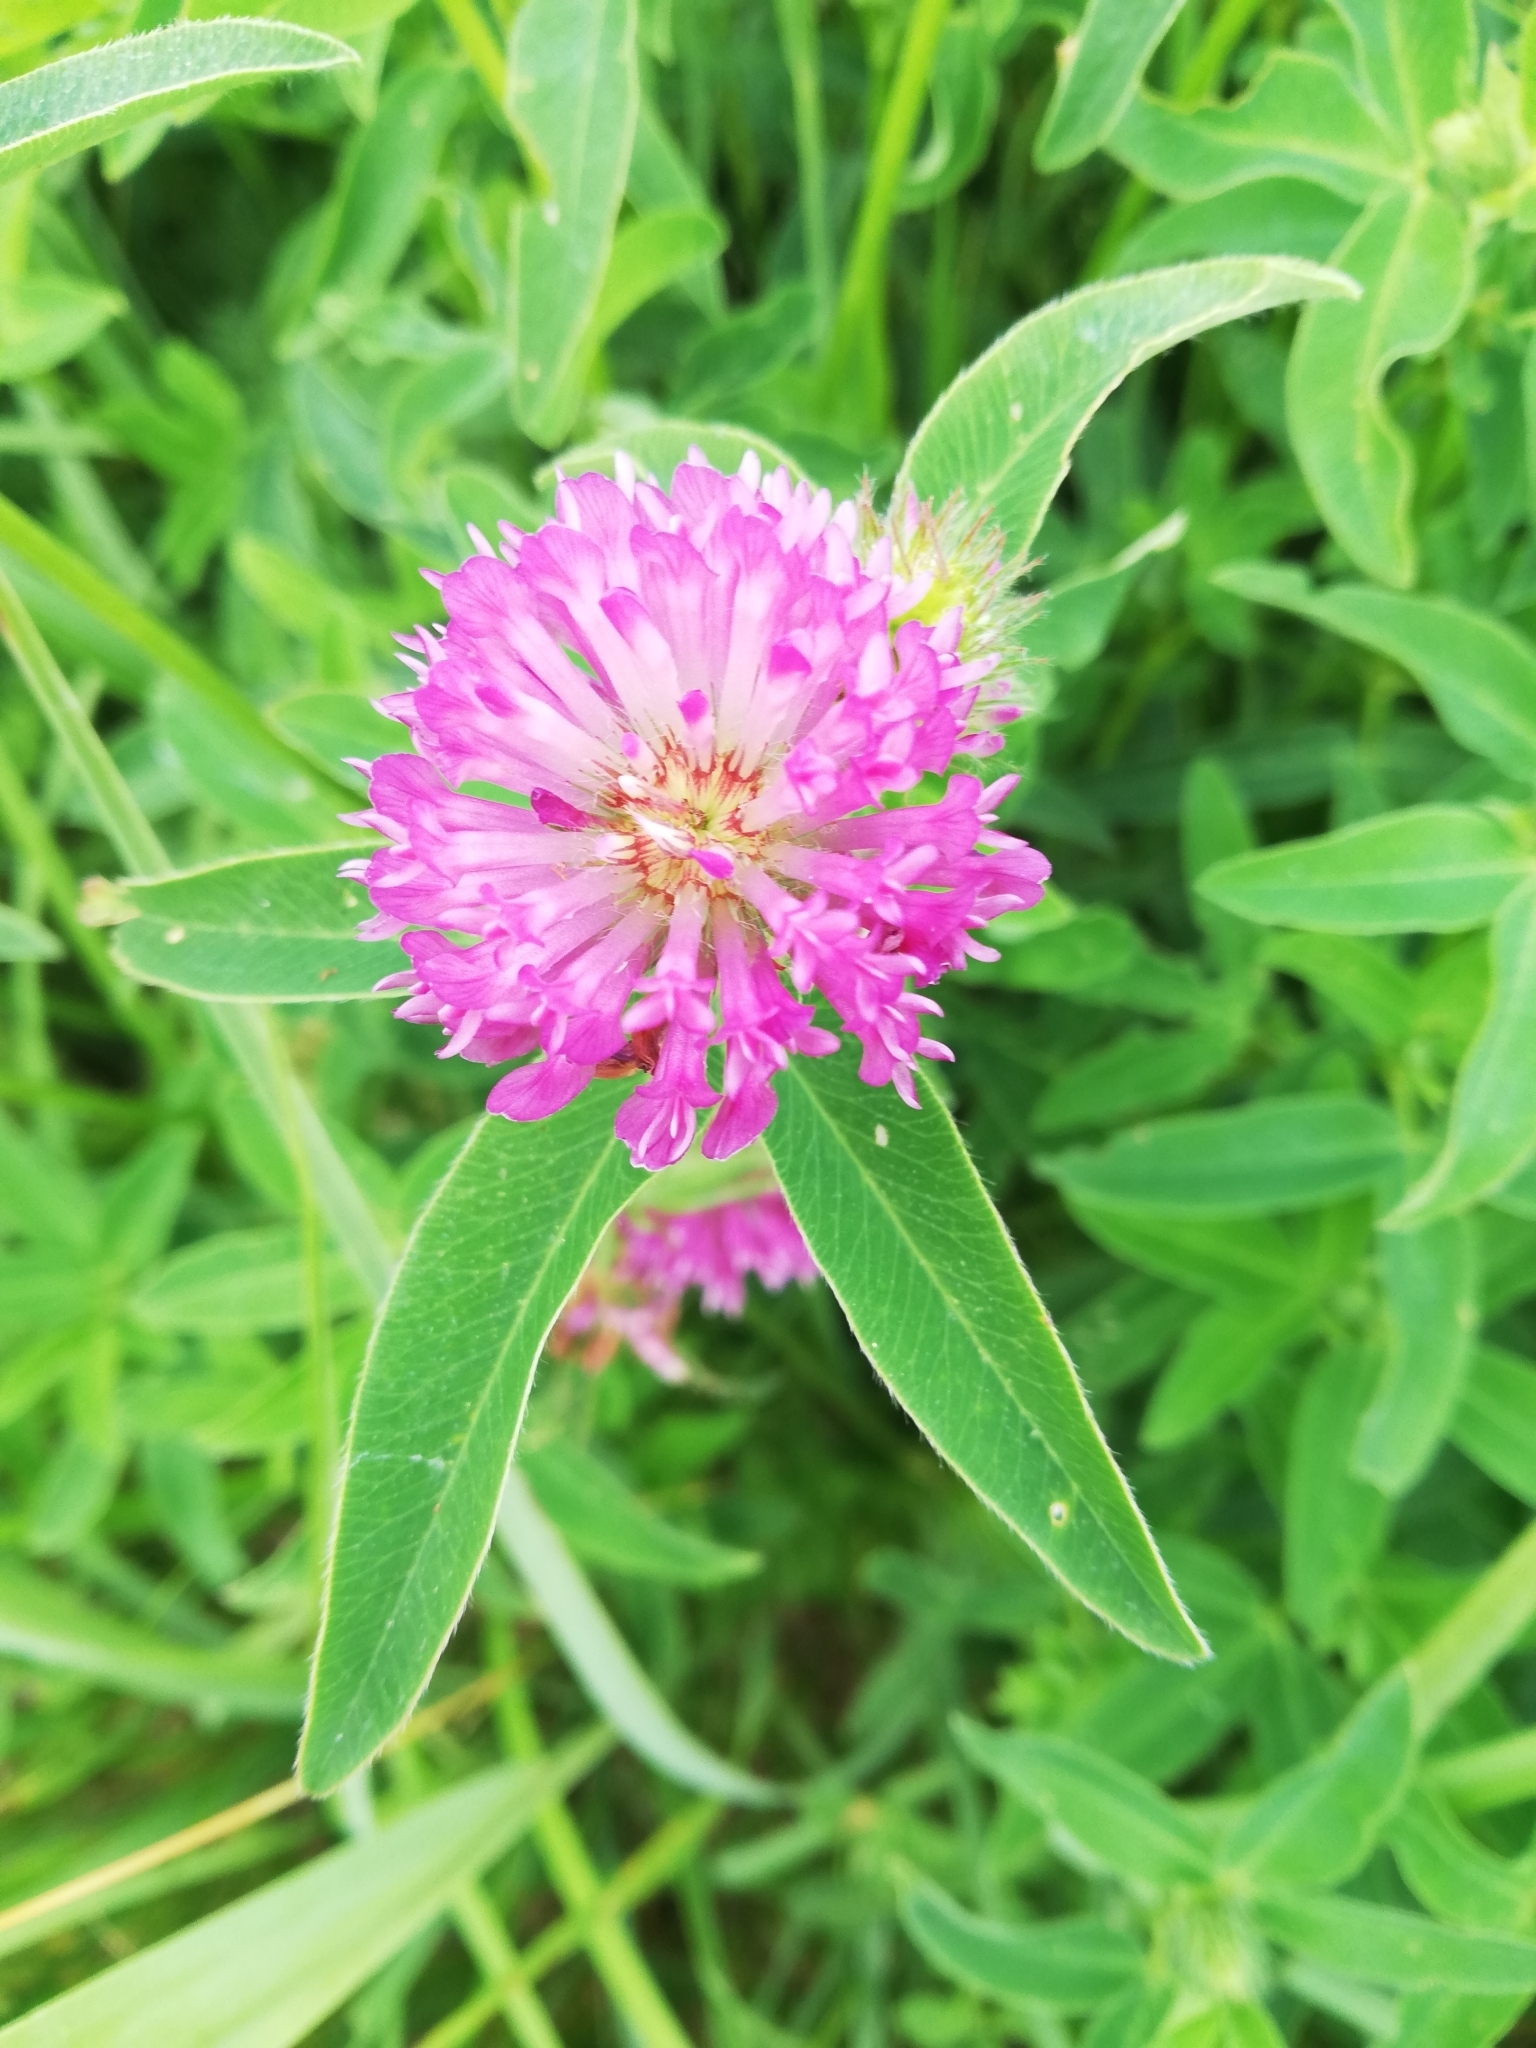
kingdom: Plantae
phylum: Tracheophyta
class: Magnoliopsida
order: Fabales
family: Fabaceae
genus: Trifolium
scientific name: Trifolium medium
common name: Zigzag clover
